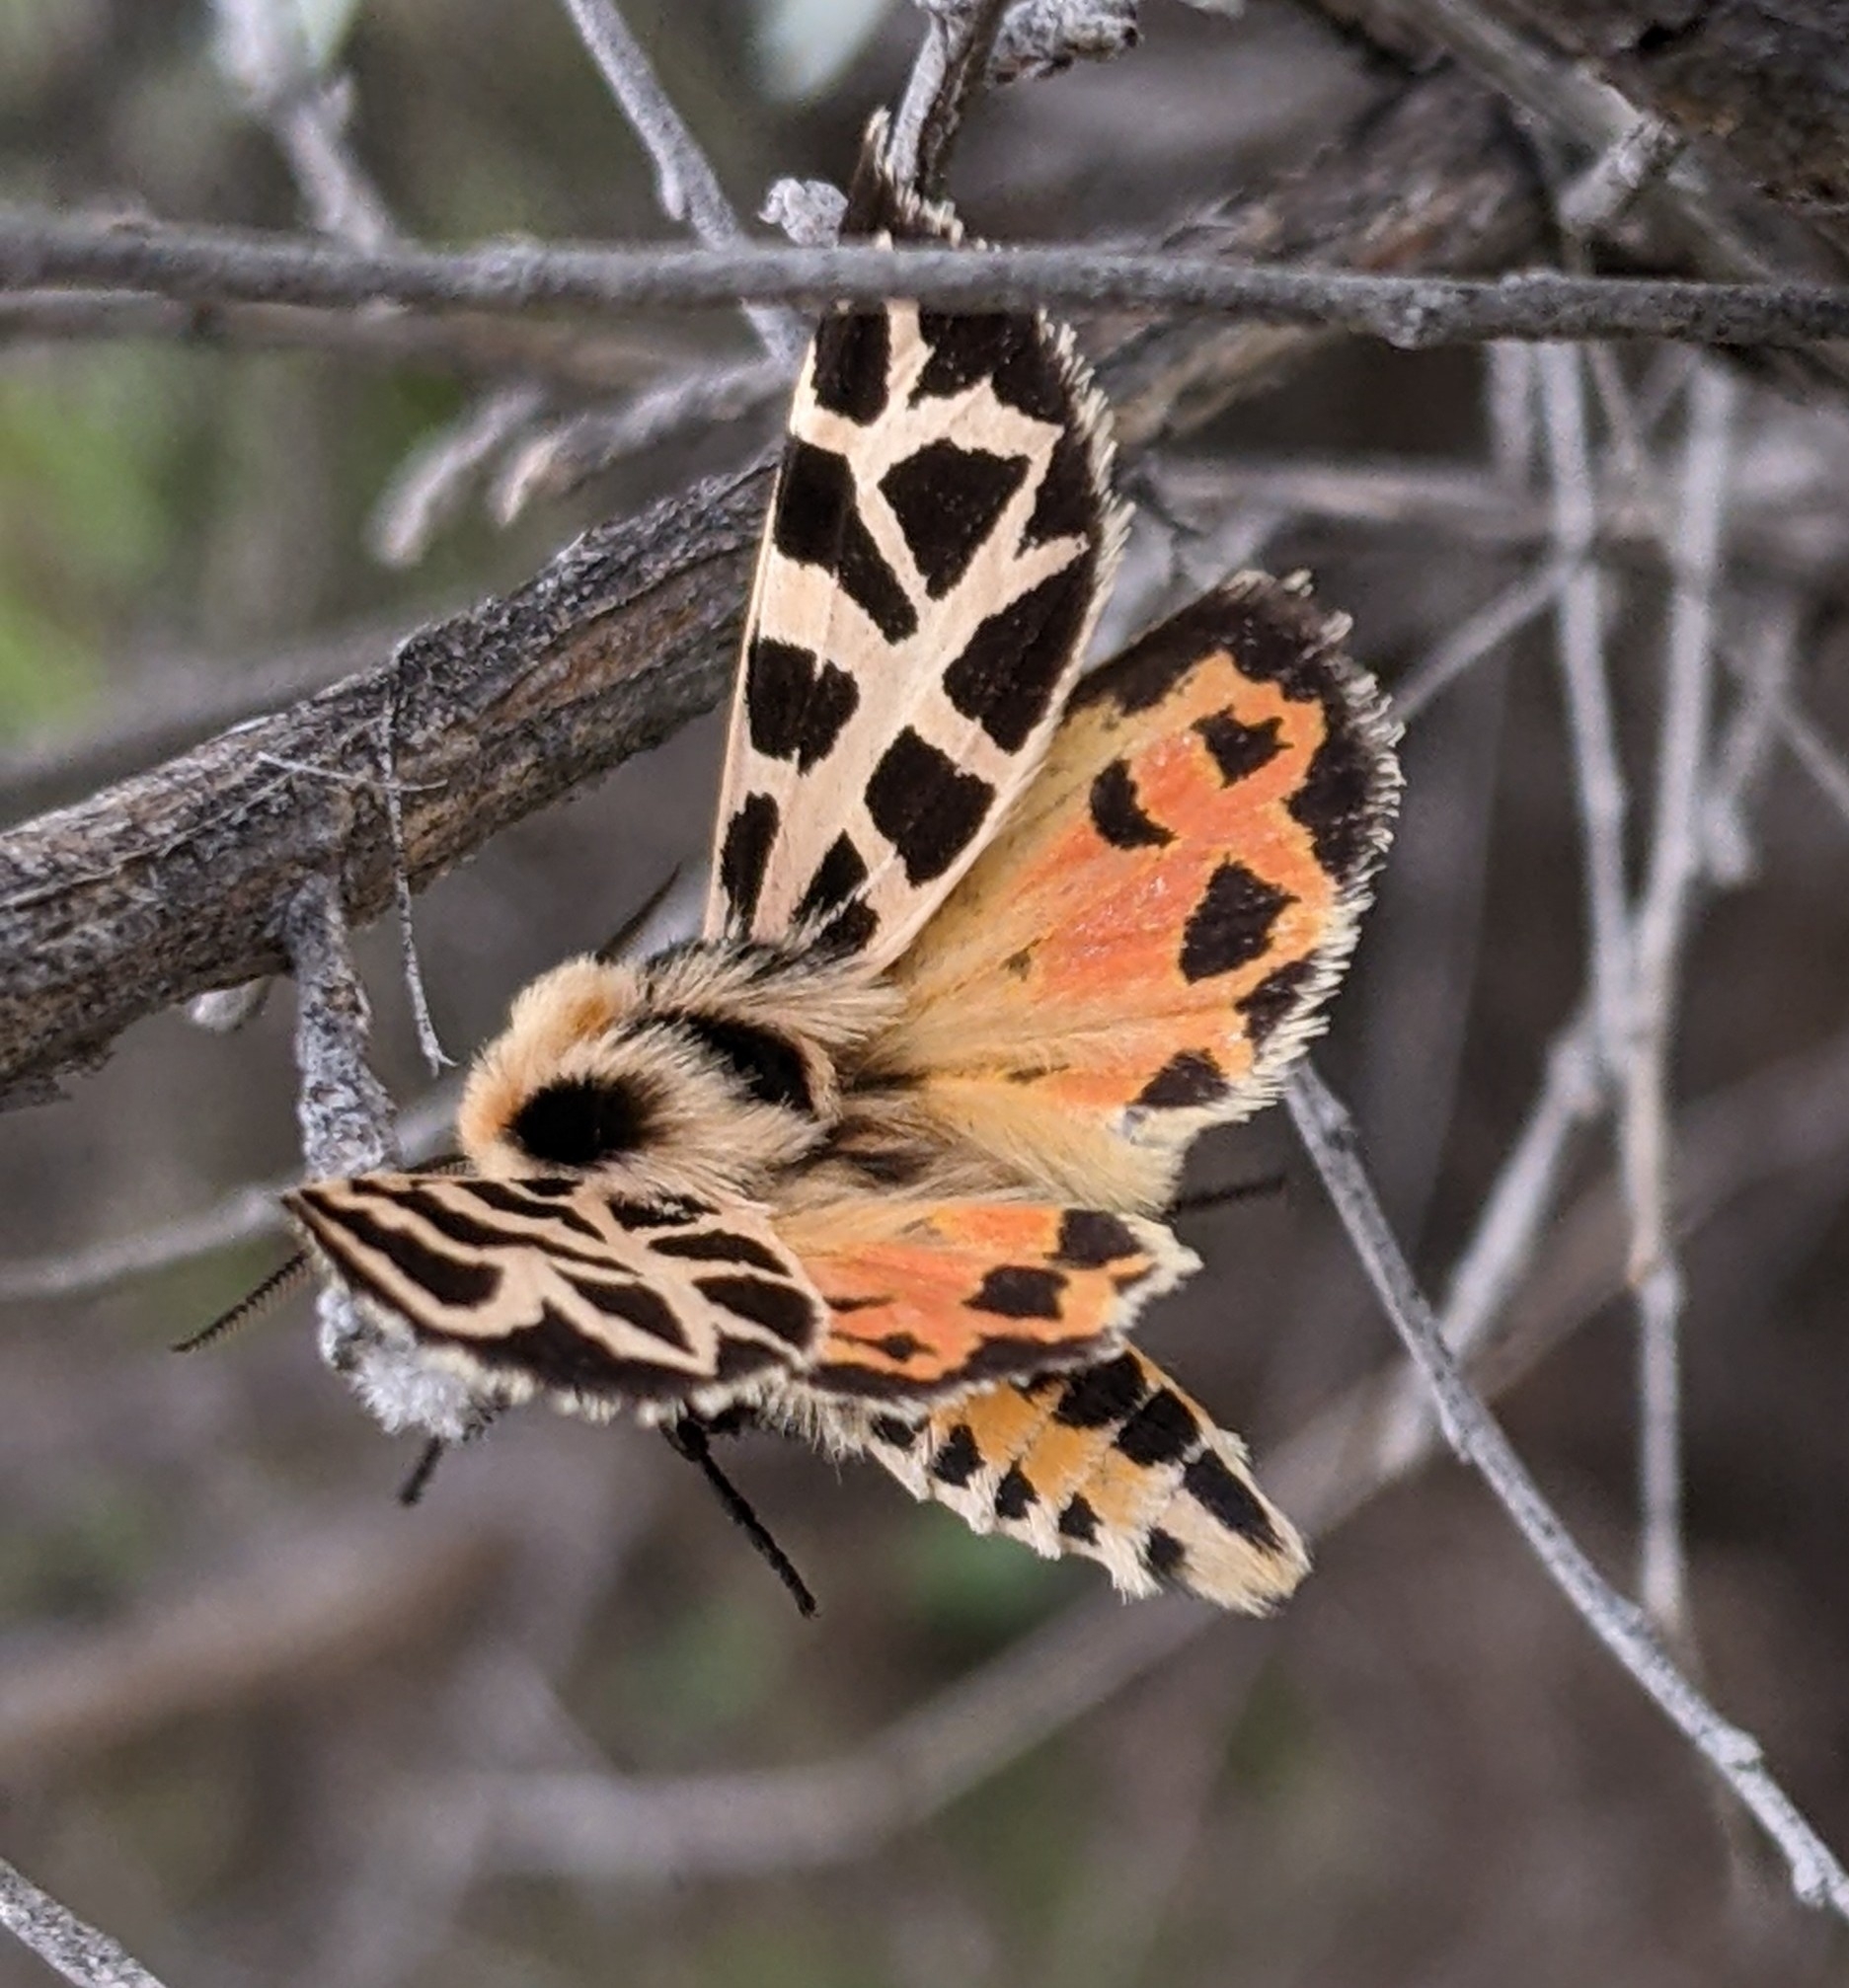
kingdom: Animalia
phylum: Arthropoda
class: Insecta
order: Lepidoptera
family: Erebidae
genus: Apantesis
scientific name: Apantesis
